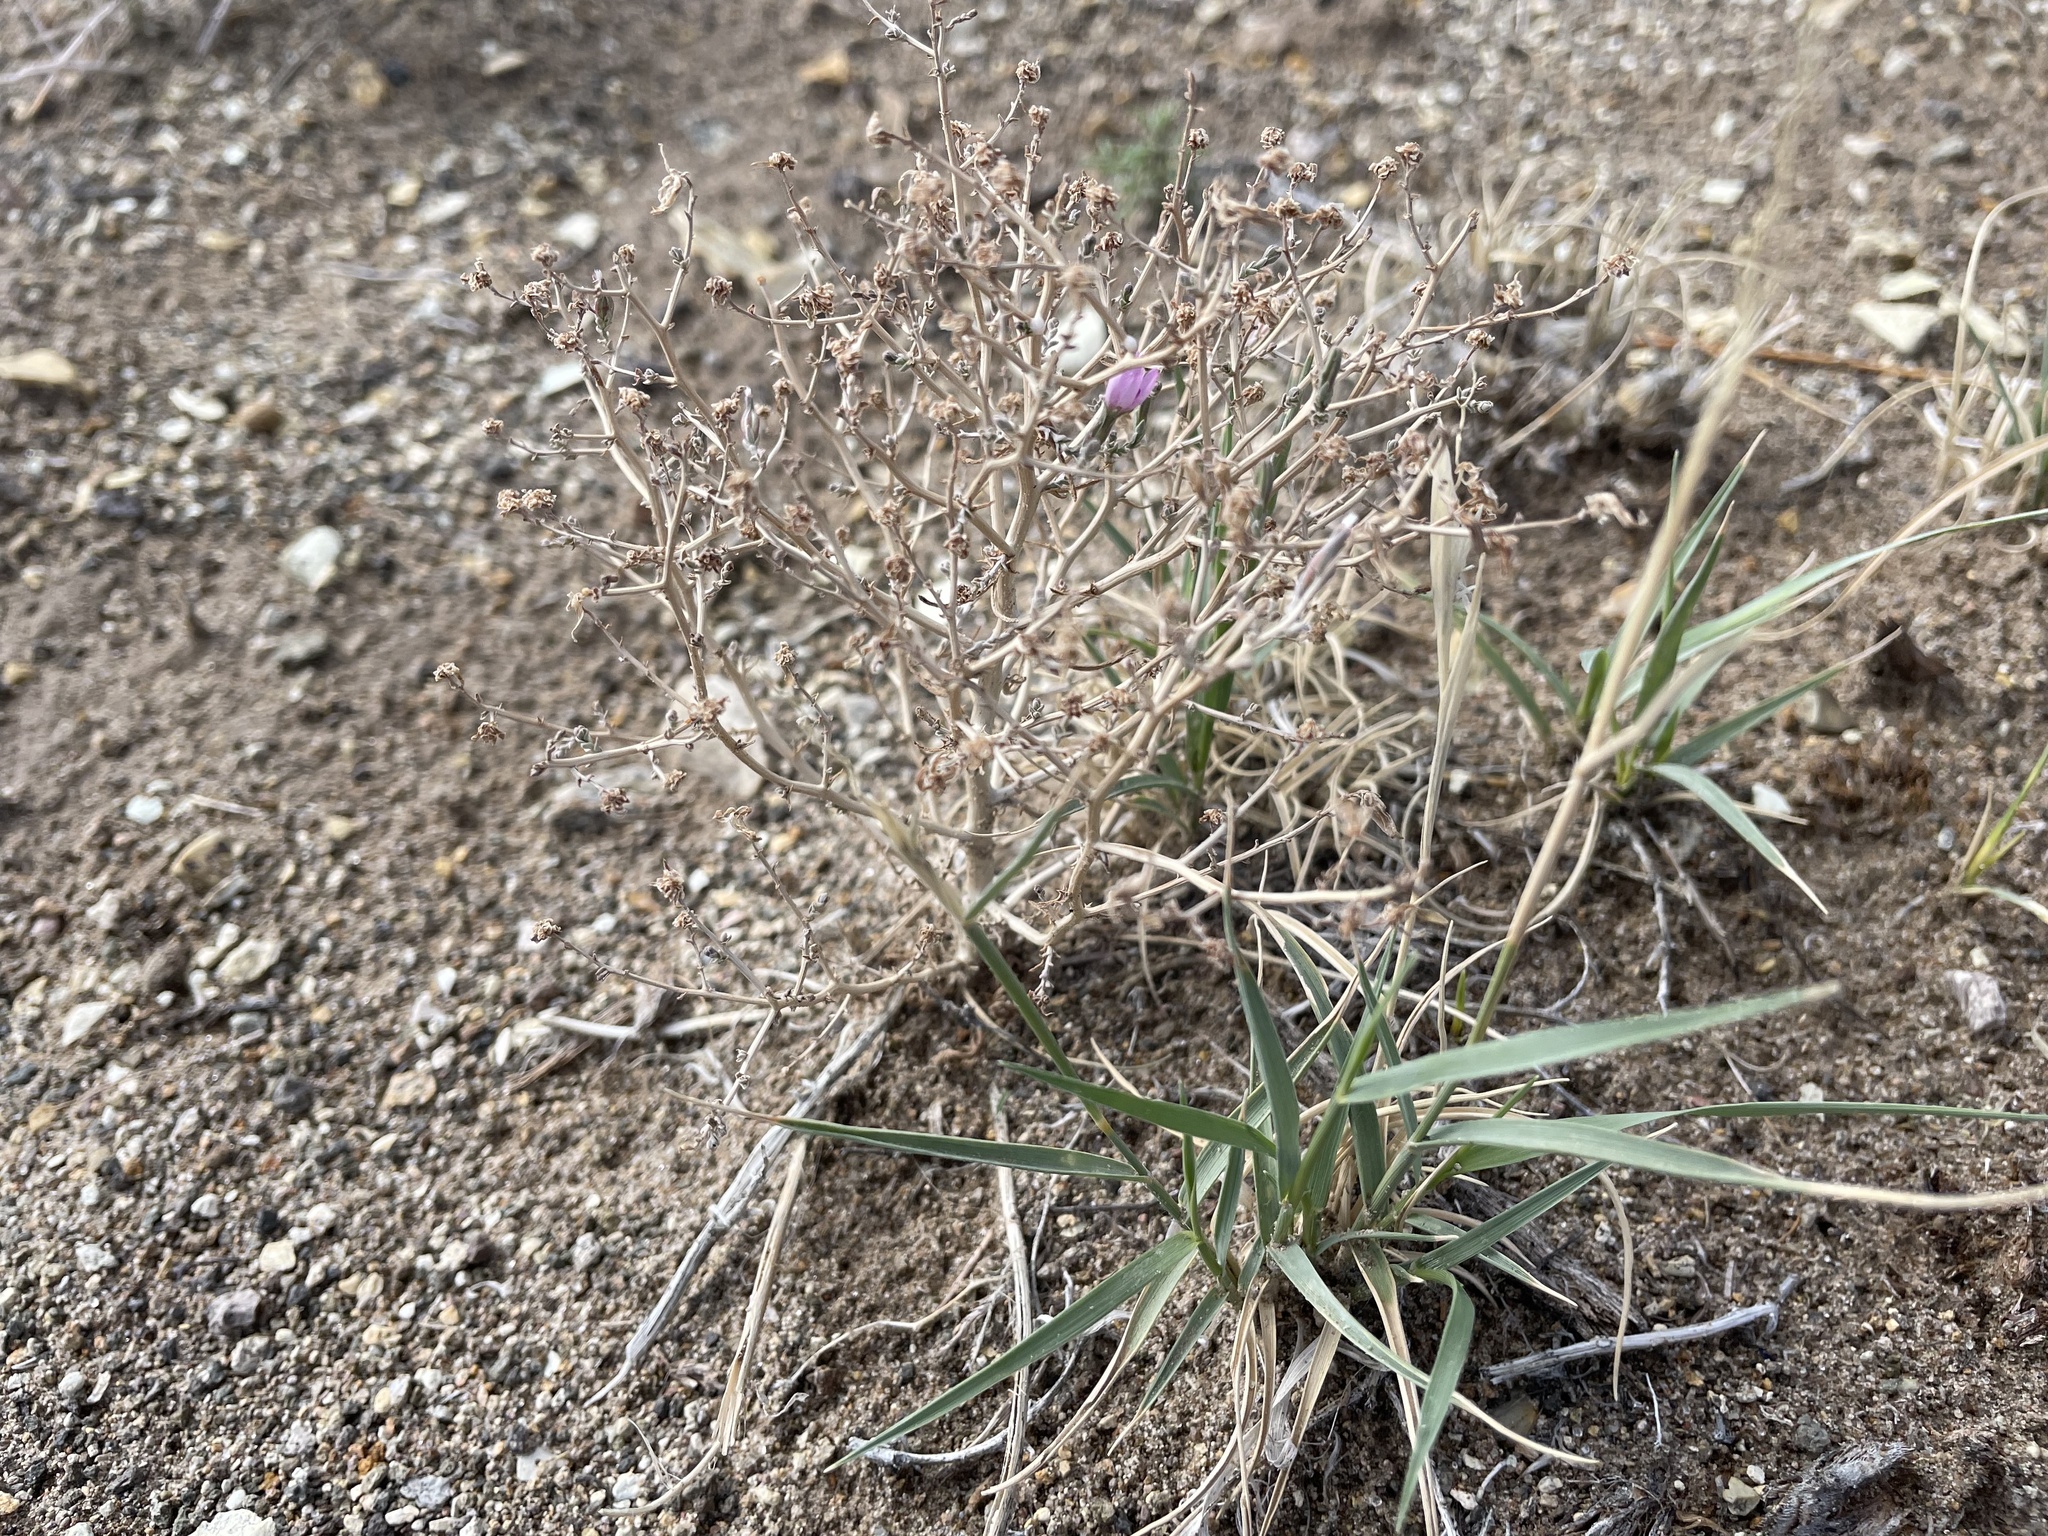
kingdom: Plantae
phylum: Tracheophyta
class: Magnoliopsida
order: Asterales
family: Asteraceae
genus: Stephanomeria
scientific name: Stephanomeria exigua
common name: Small wirelettuce
